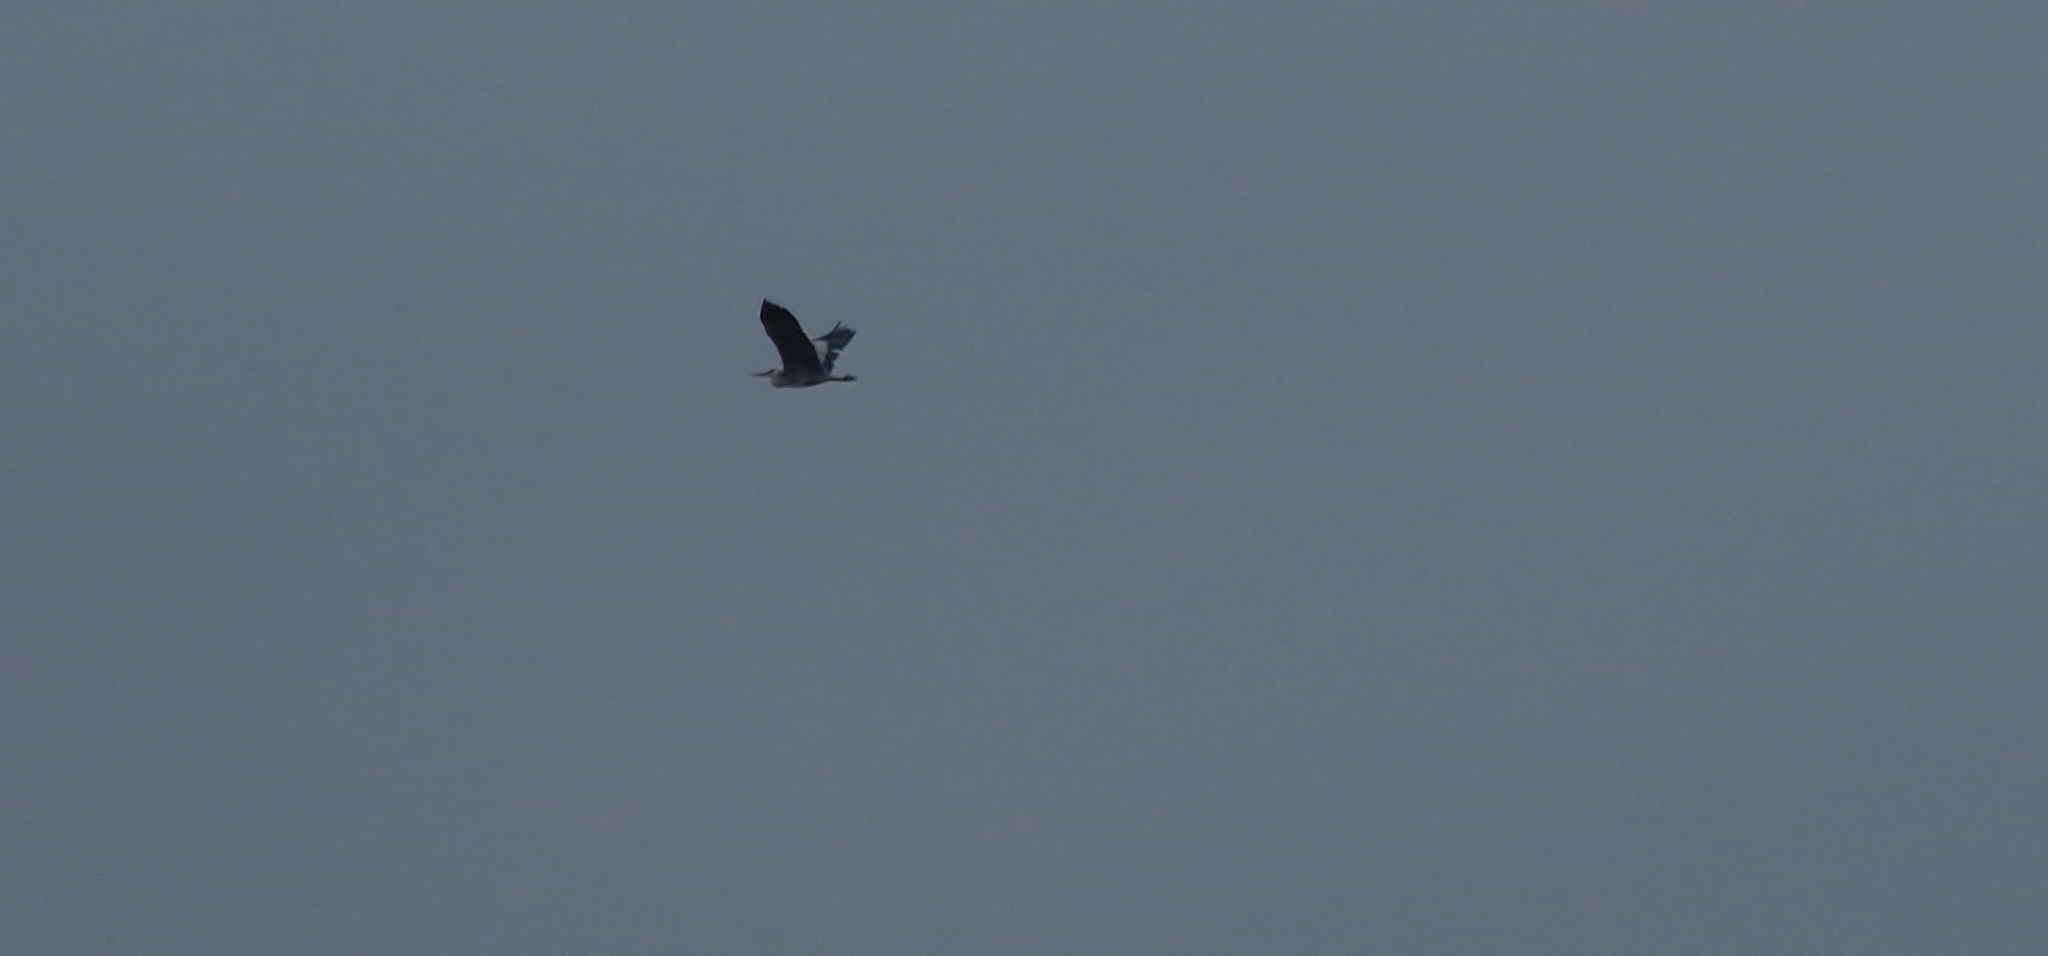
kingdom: Animalia
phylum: Chordata
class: Aves
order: Pelecaniformes
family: Ardeidae
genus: Ardea
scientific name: Ardea cinerea
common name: Grey heron
